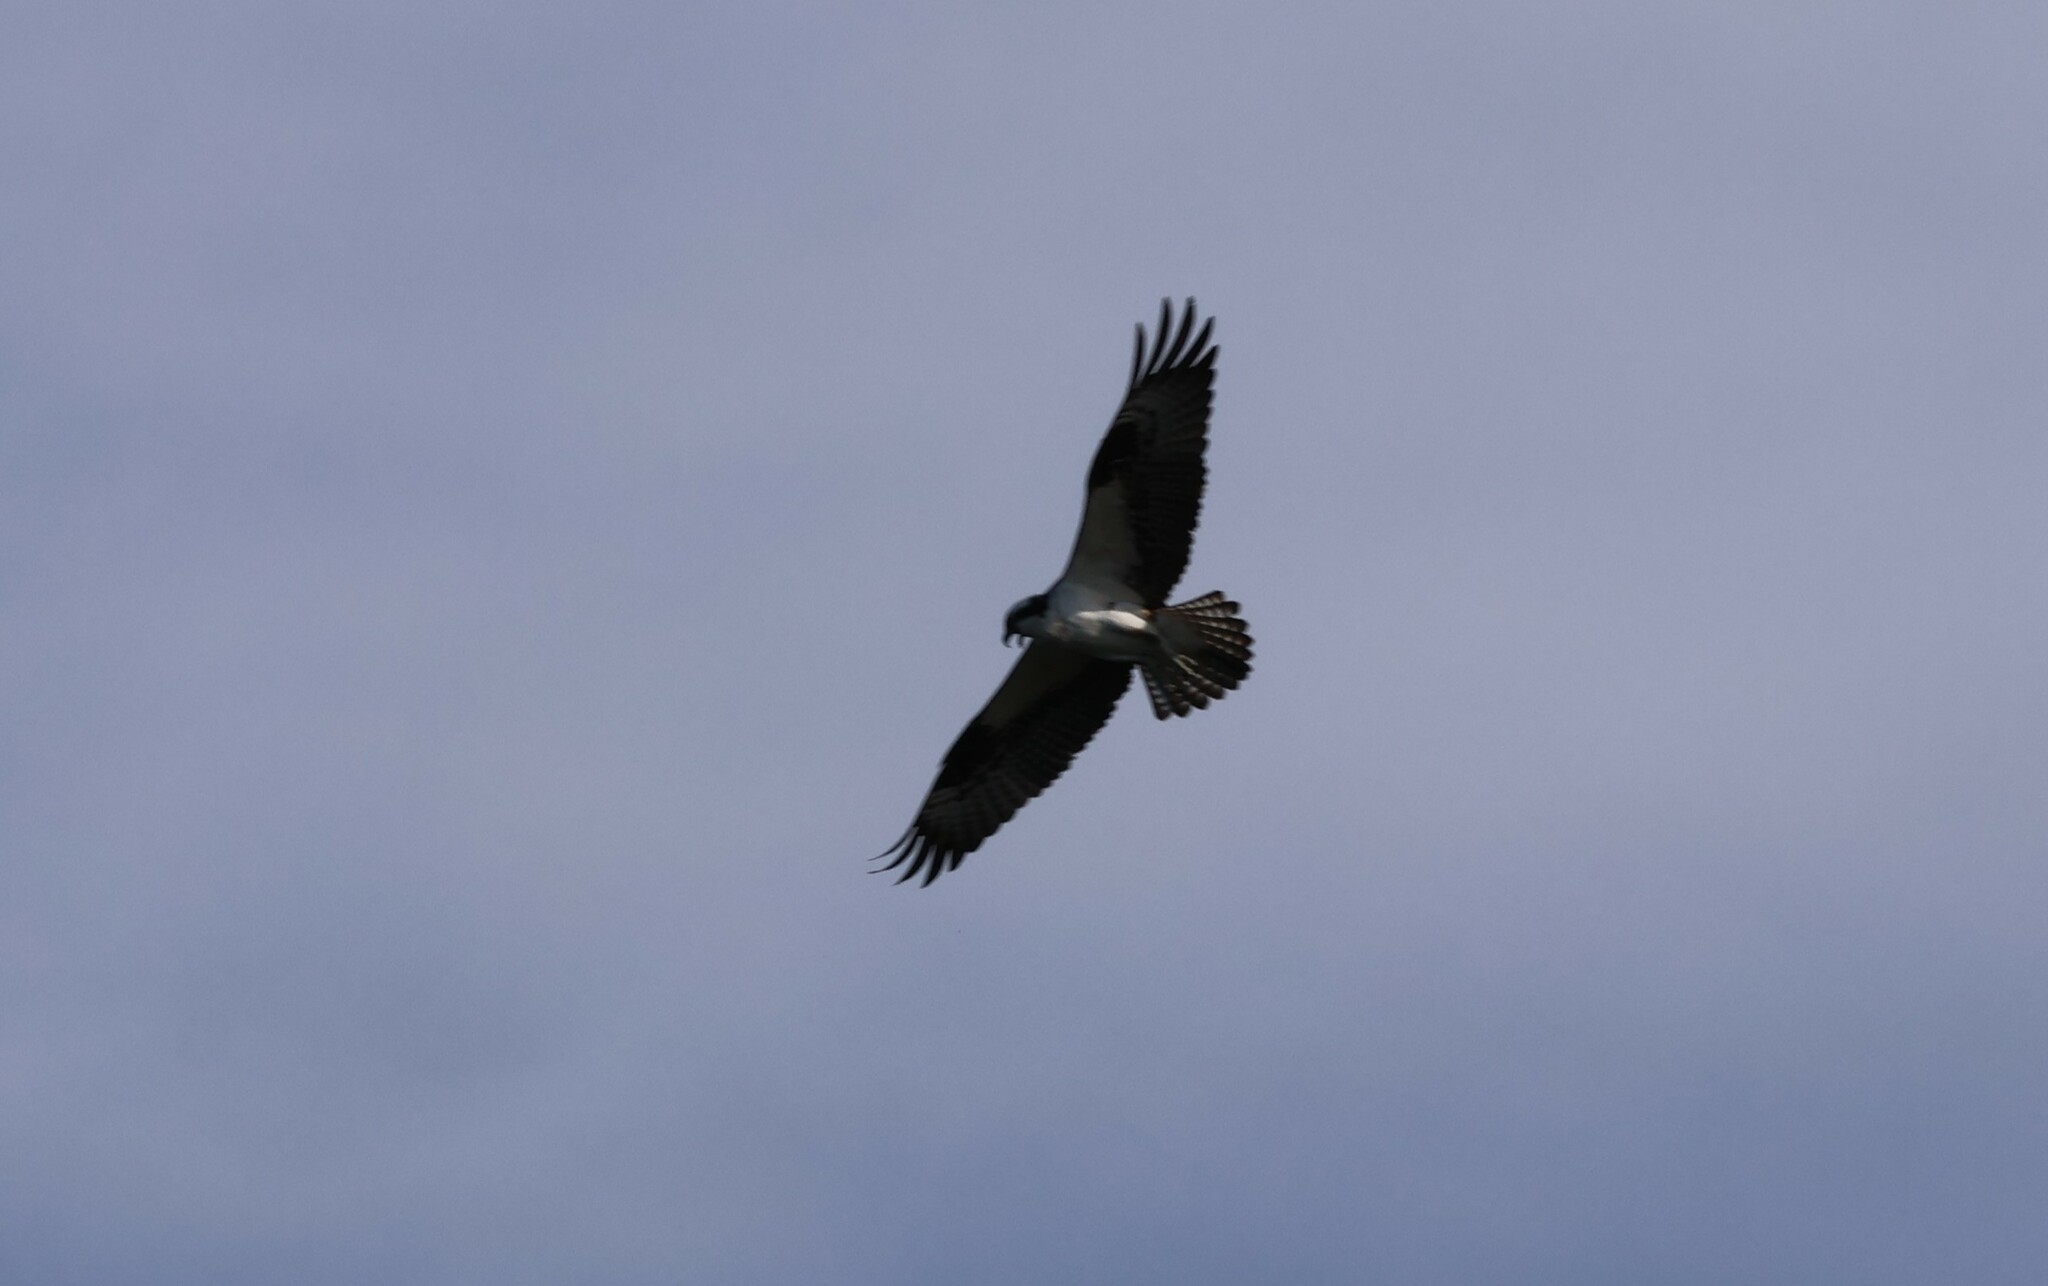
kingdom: Animalia
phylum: Chordata
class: Aves
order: Accipitriformes
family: Pandionidae
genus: Pandion
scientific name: Pandion haliaetus
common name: Osprey
